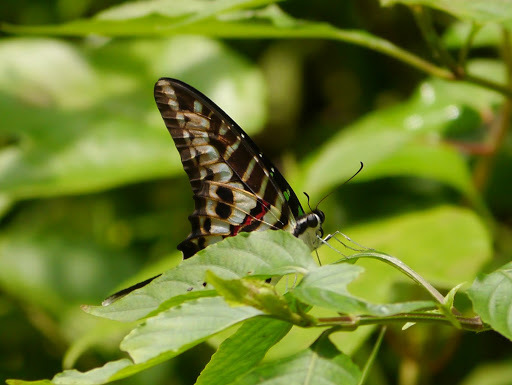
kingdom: Animalia
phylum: Arthropoda
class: Insecta
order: Lepidoptera
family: Papilionidae
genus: Graphium
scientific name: Graphium policenes
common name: Common swordtail
